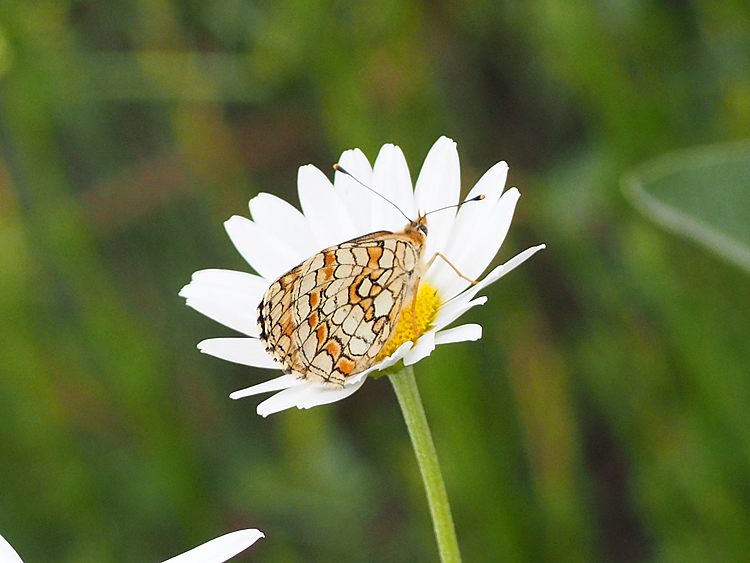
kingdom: Animalia
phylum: Arthropoda
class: Insecta
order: Lepidoptera
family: Nymphalidae
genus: Melitaea
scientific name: Melitaea deione
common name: Provençal fritillary
